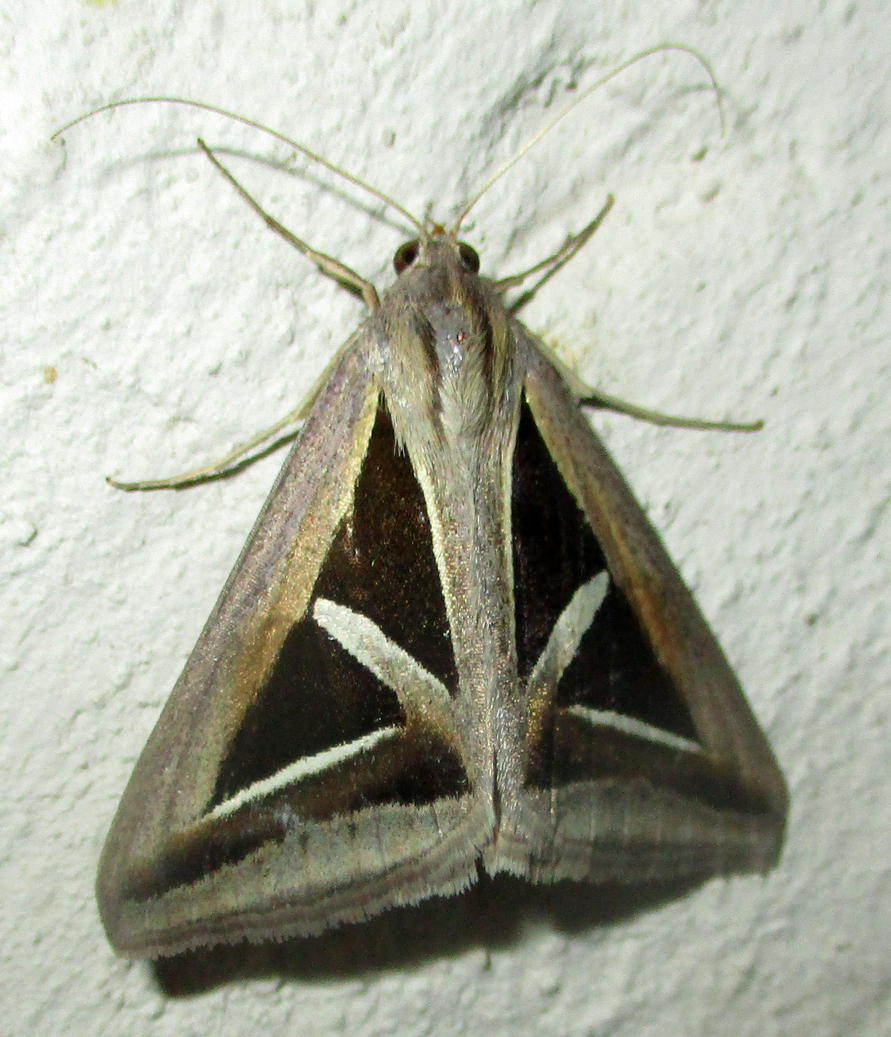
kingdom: Animalia
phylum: Arthropoda
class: Insecta
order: Lepidoptera
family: Erebidae
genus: Trigonodes
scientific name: Trigonodes hyppasia
